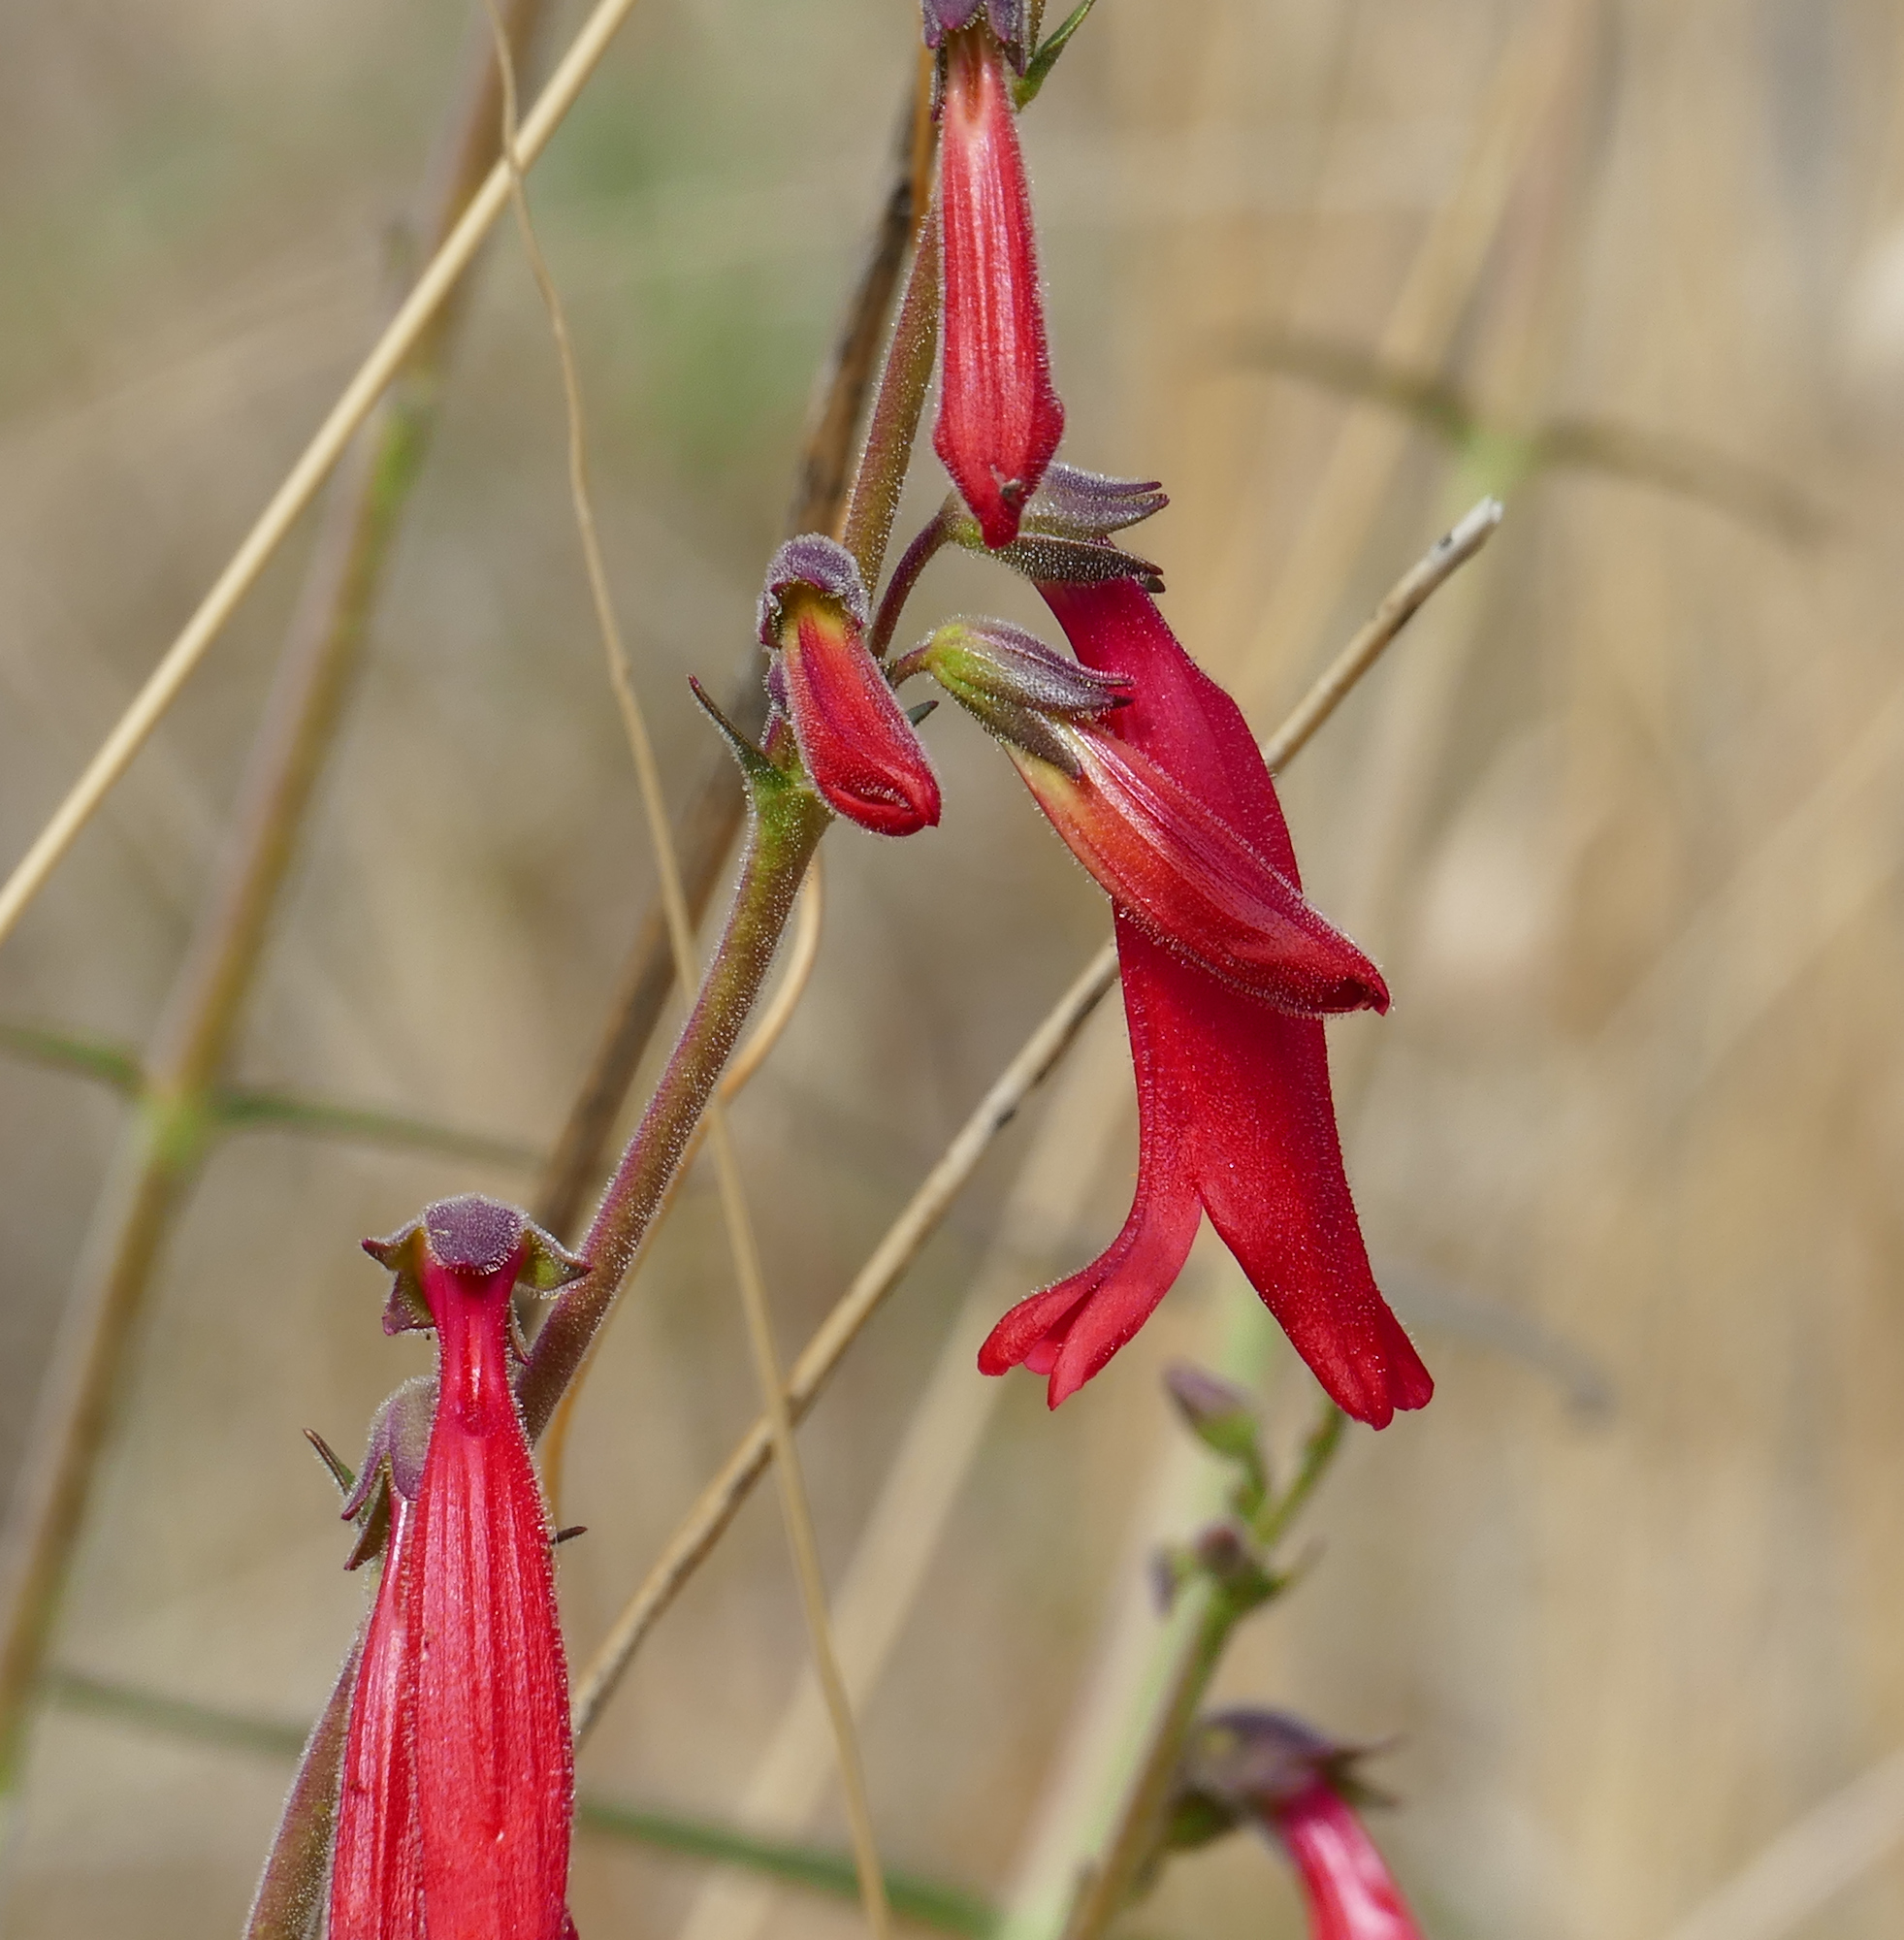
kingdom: Plantae
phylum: Tracheophyta
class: Magnoliopsida
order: Lamiales
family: Plantaginaceae
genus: Penstemon
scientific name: Penstemon lanceolatus
